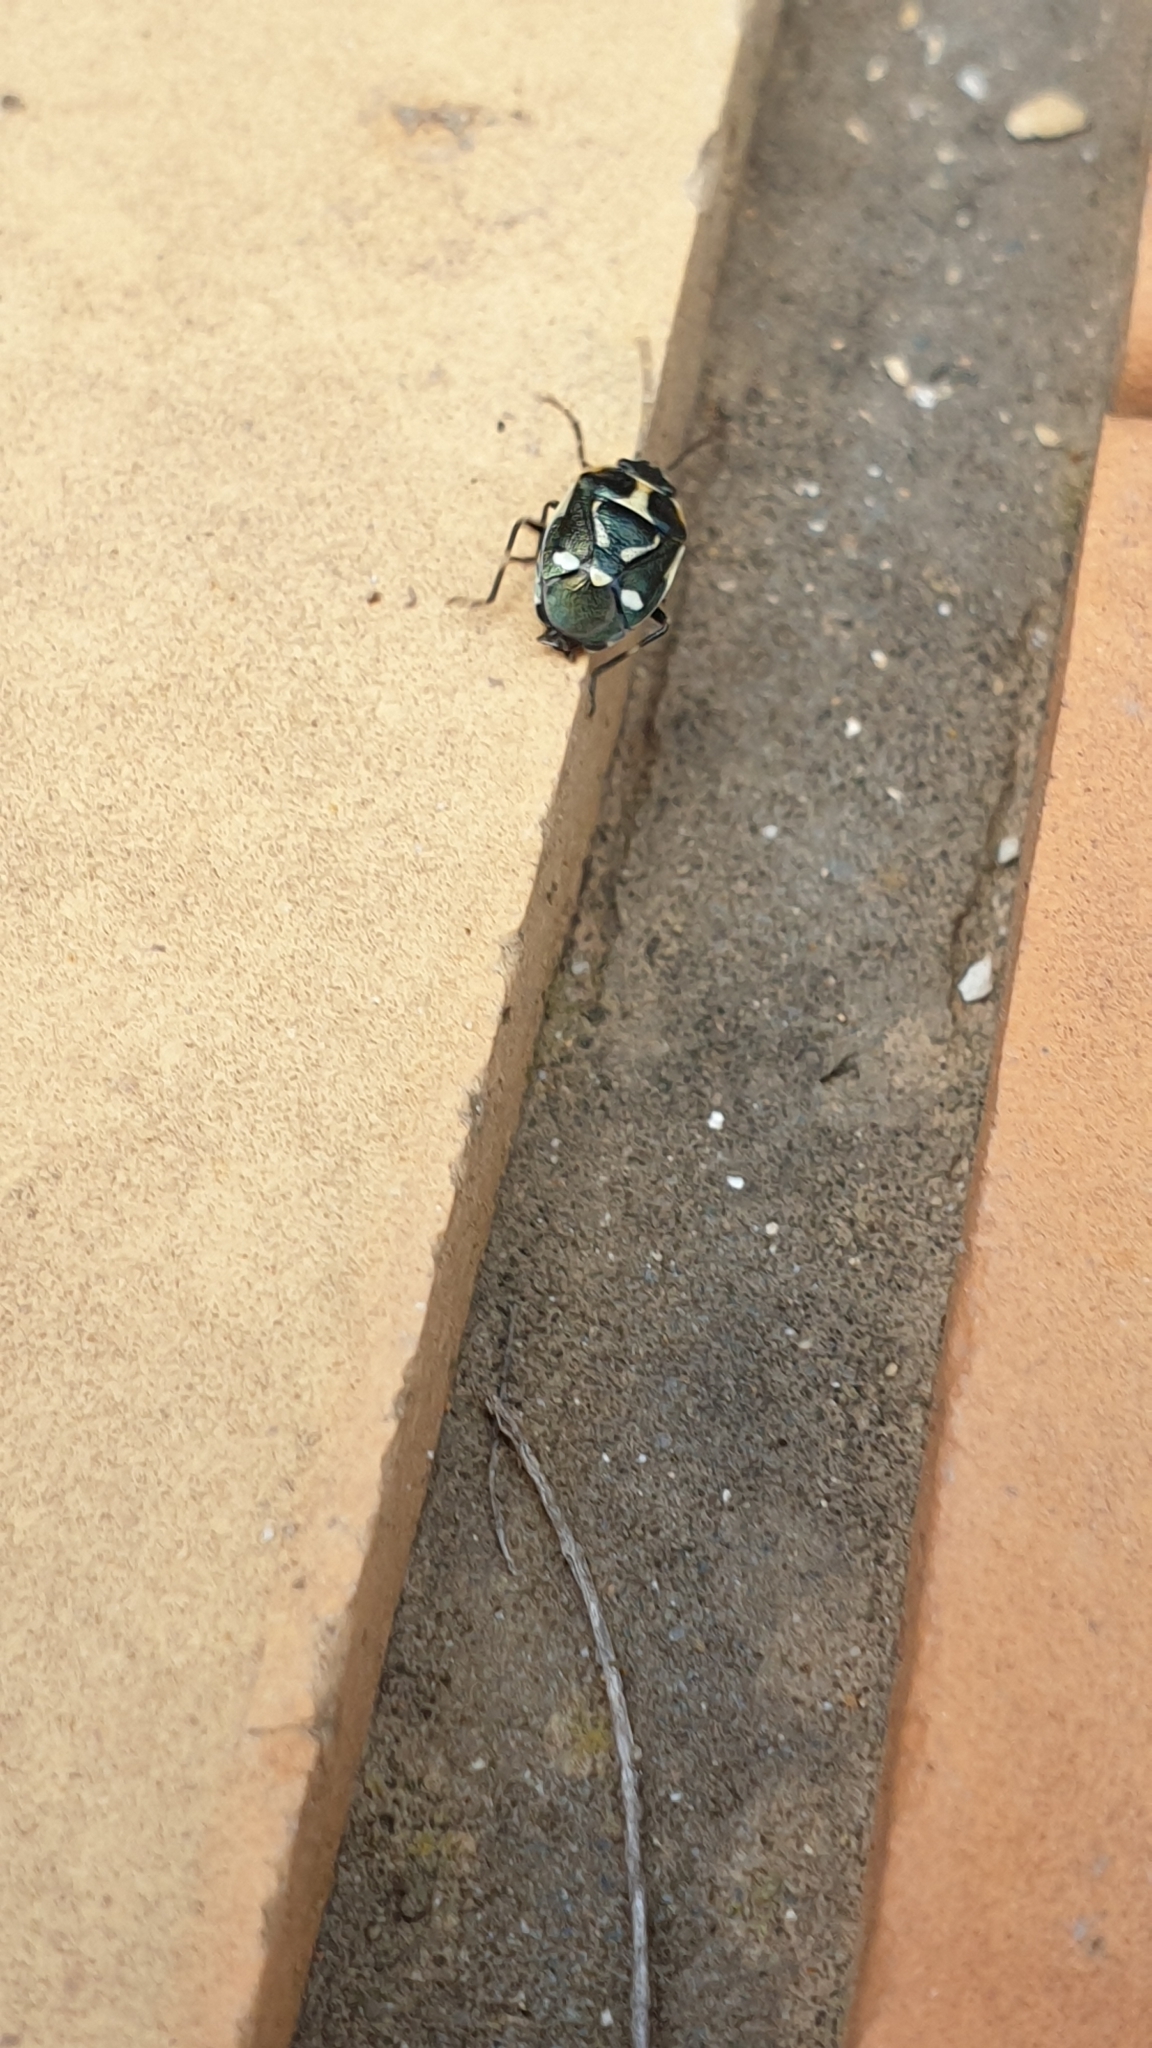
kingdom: Animalia
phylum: Arthropoda
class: Insecta
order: Hemiptera
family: Pentatomidae
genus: Eurydema
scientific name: Eurydema oleracea
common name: Cabbage bug
